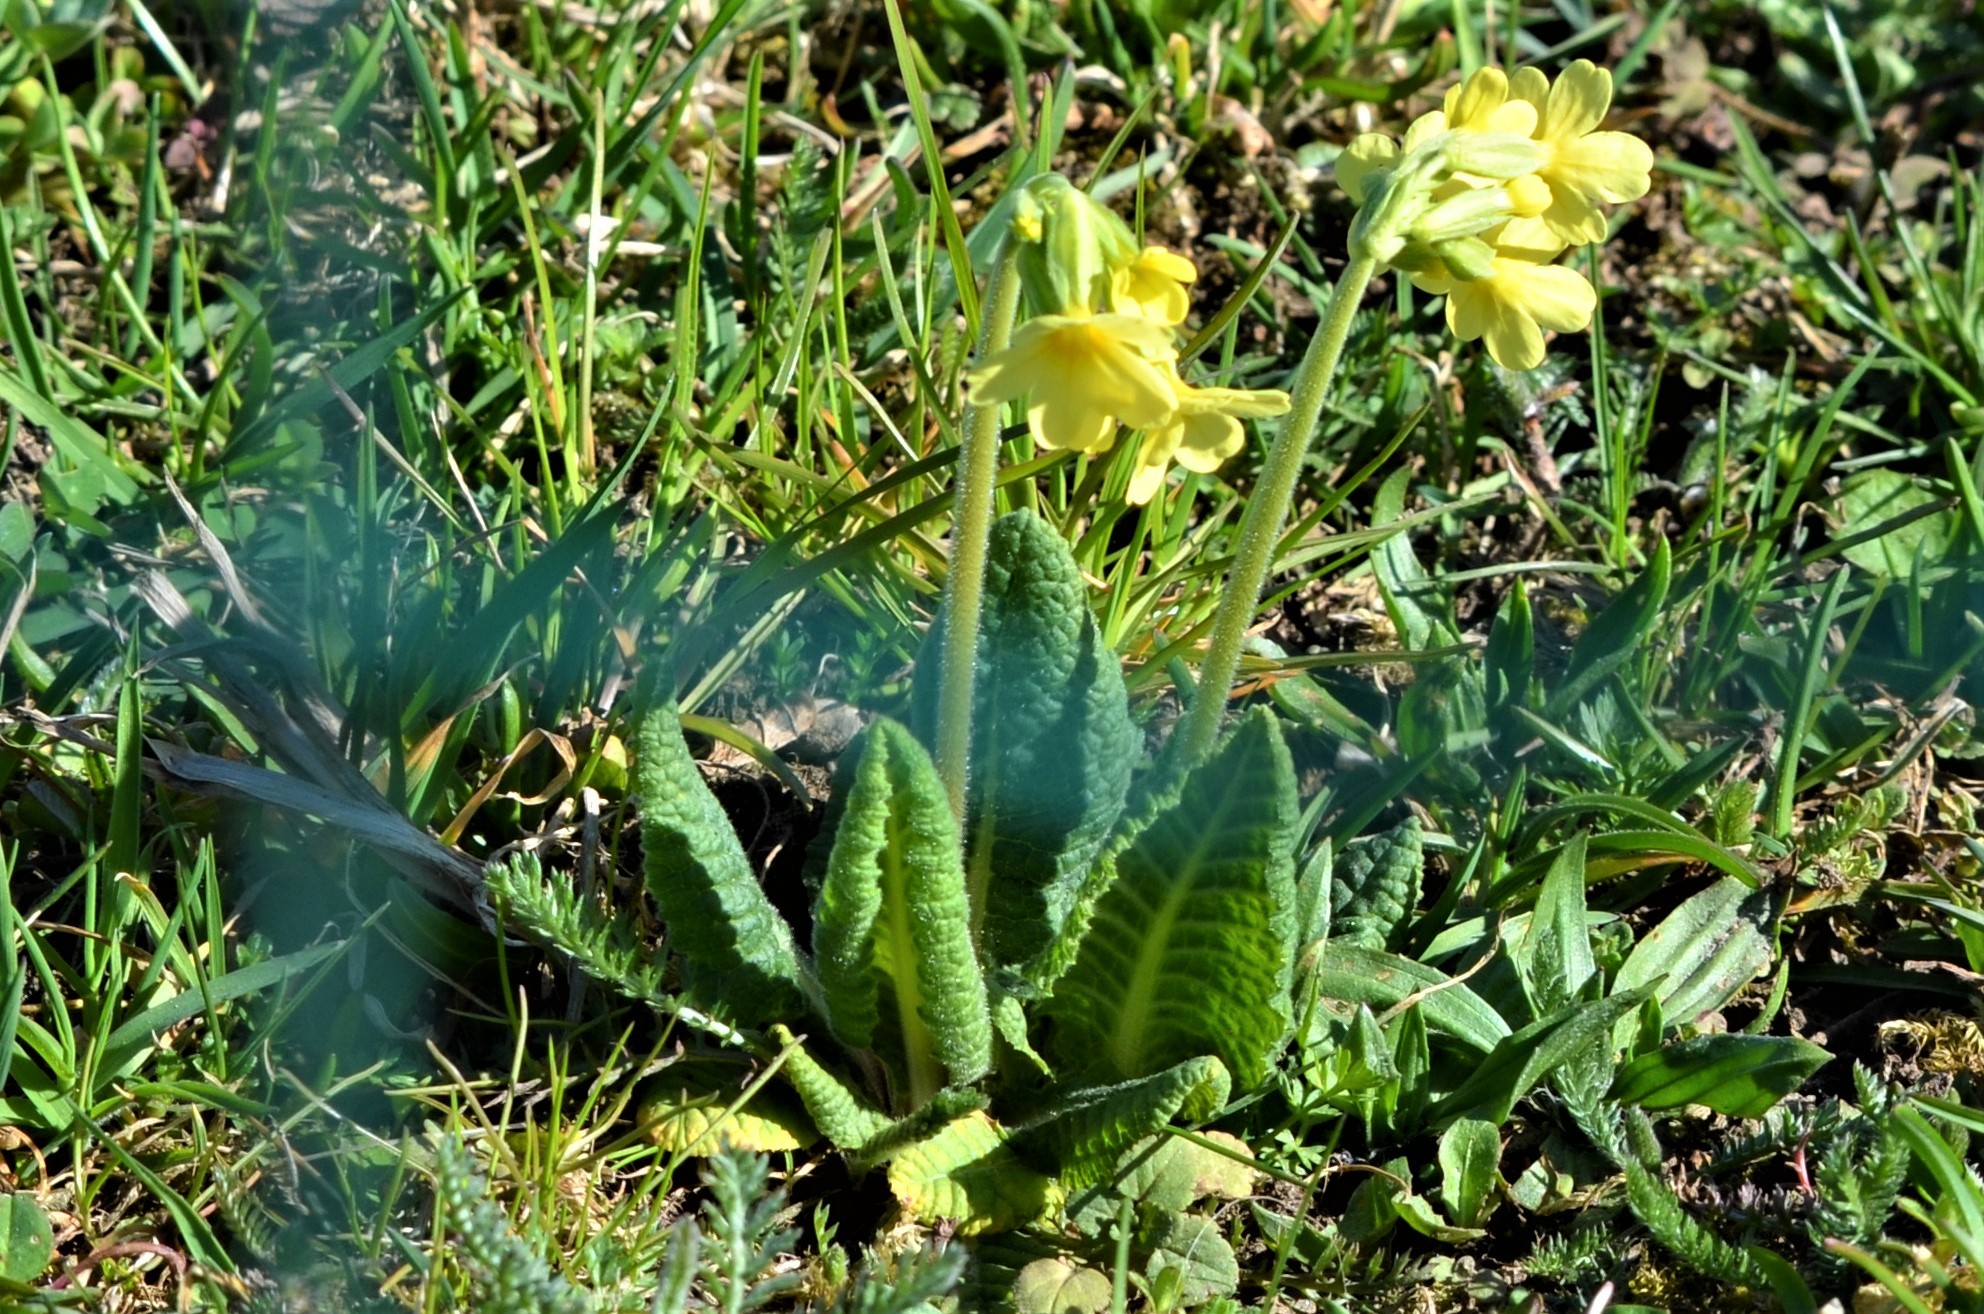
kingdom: Plantae
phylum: Tracheophyta
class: Magnoliopsida
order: Ericales
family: Primulaceae
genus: Primula
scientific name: Primula elatior
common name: Oxlip
